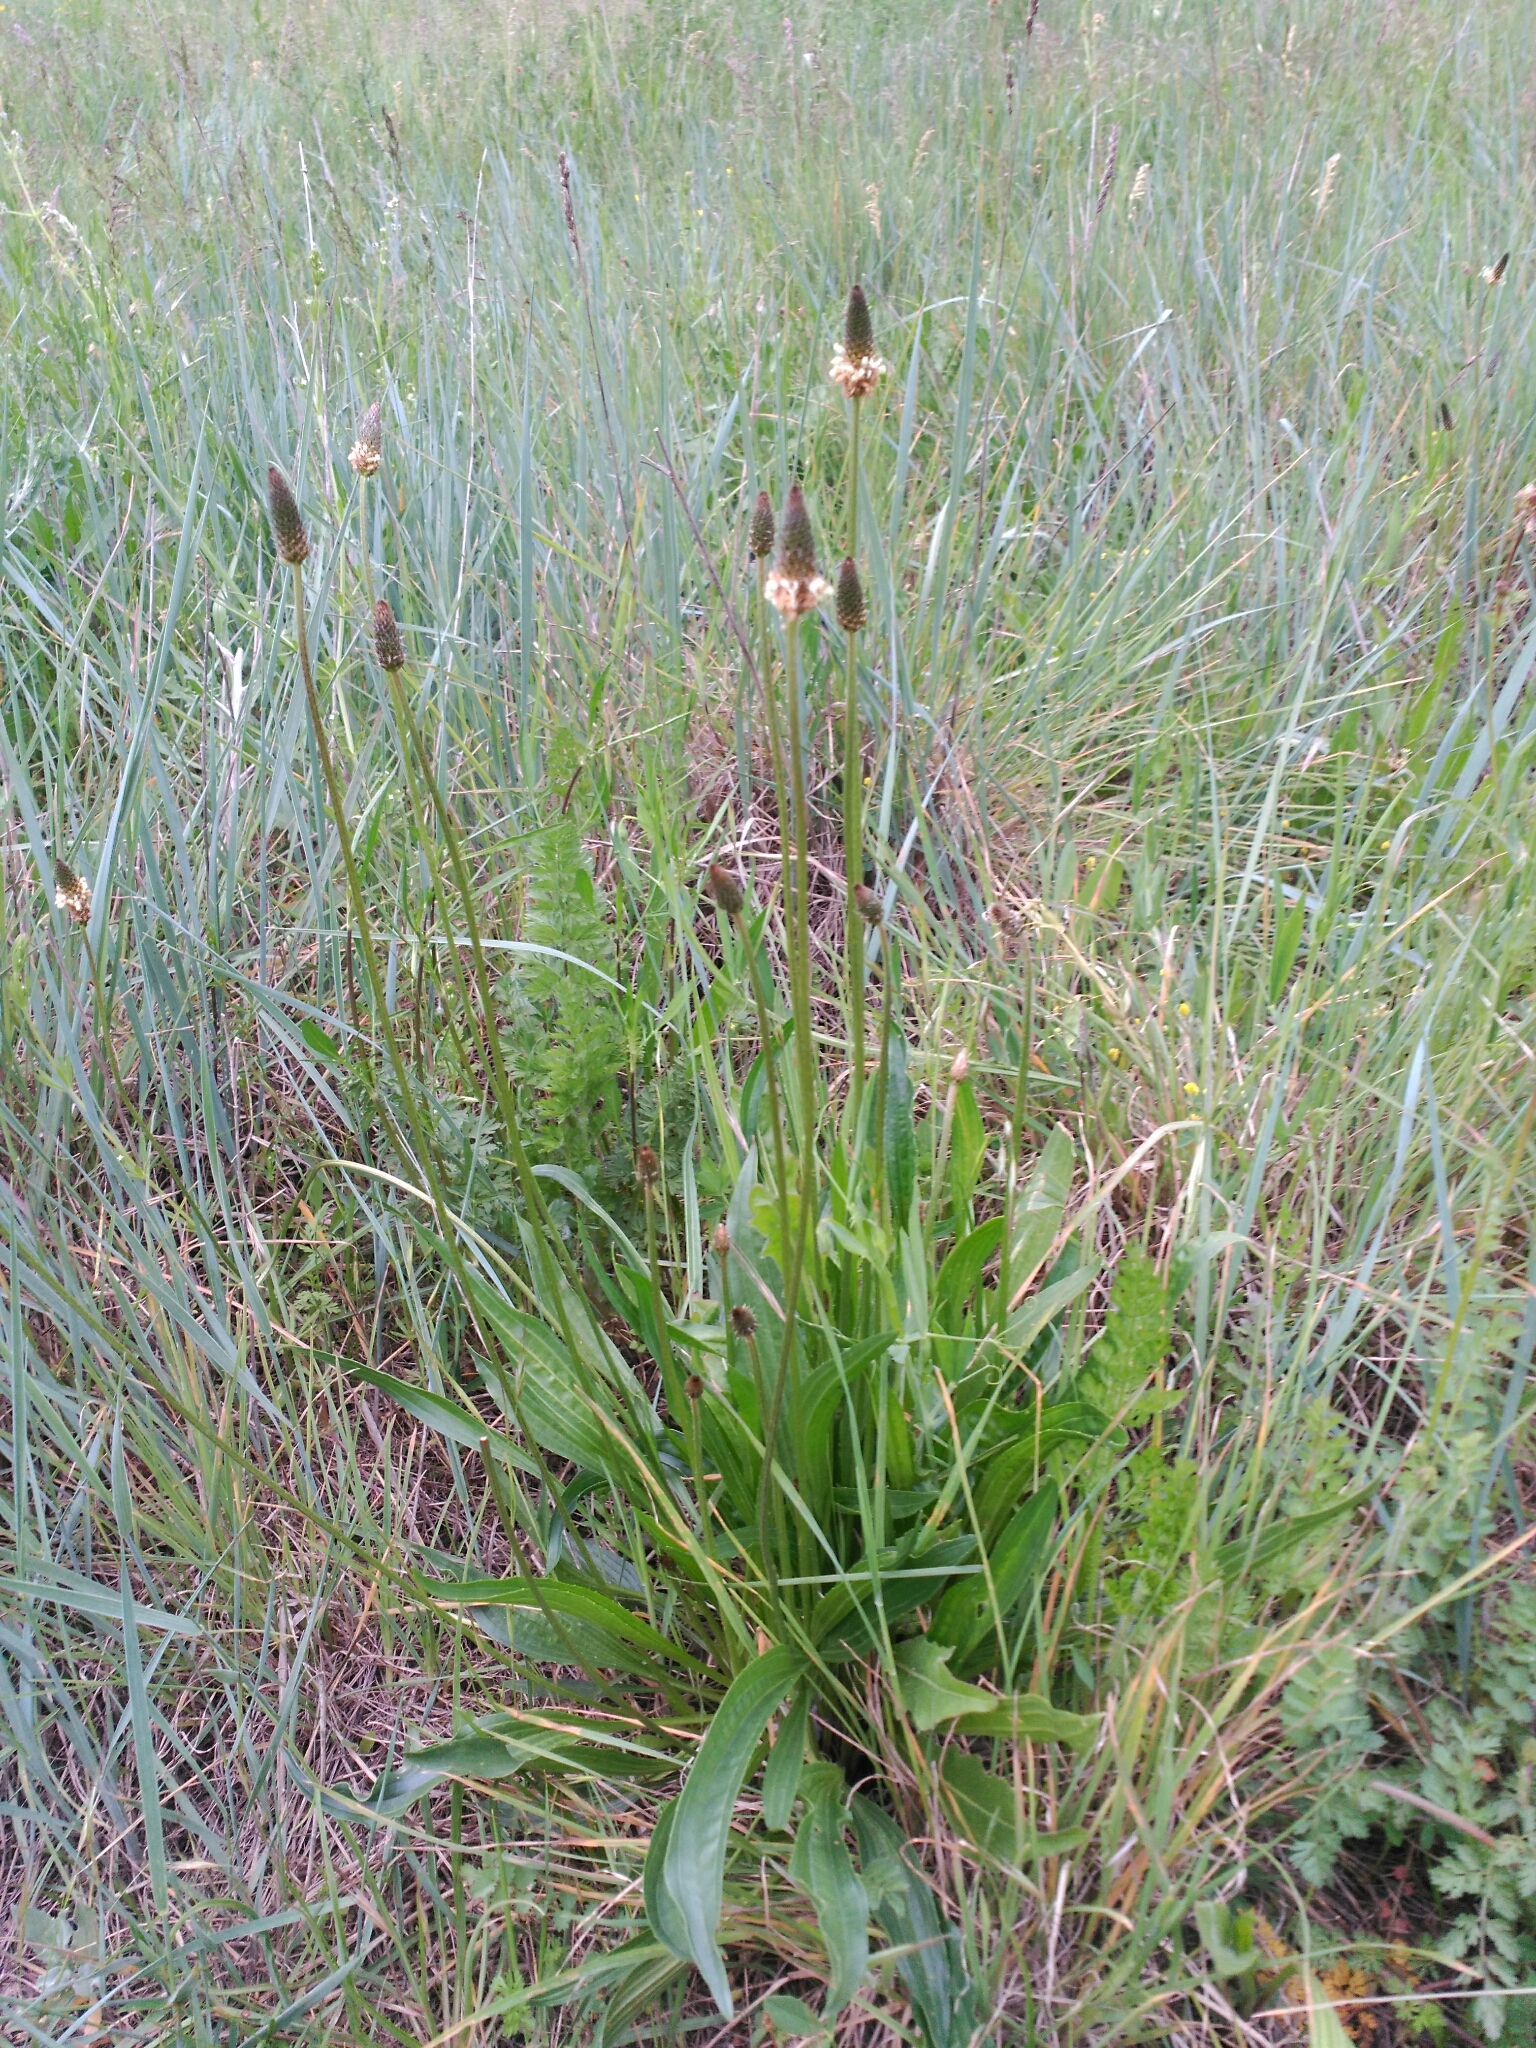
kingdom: Plantae
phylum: Tracheophyta
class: Magnoliopsida
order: Lamiales
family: Plantaginaceae
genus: Plantago
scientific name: Plantago lanceolata
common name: Ribwort plantain
